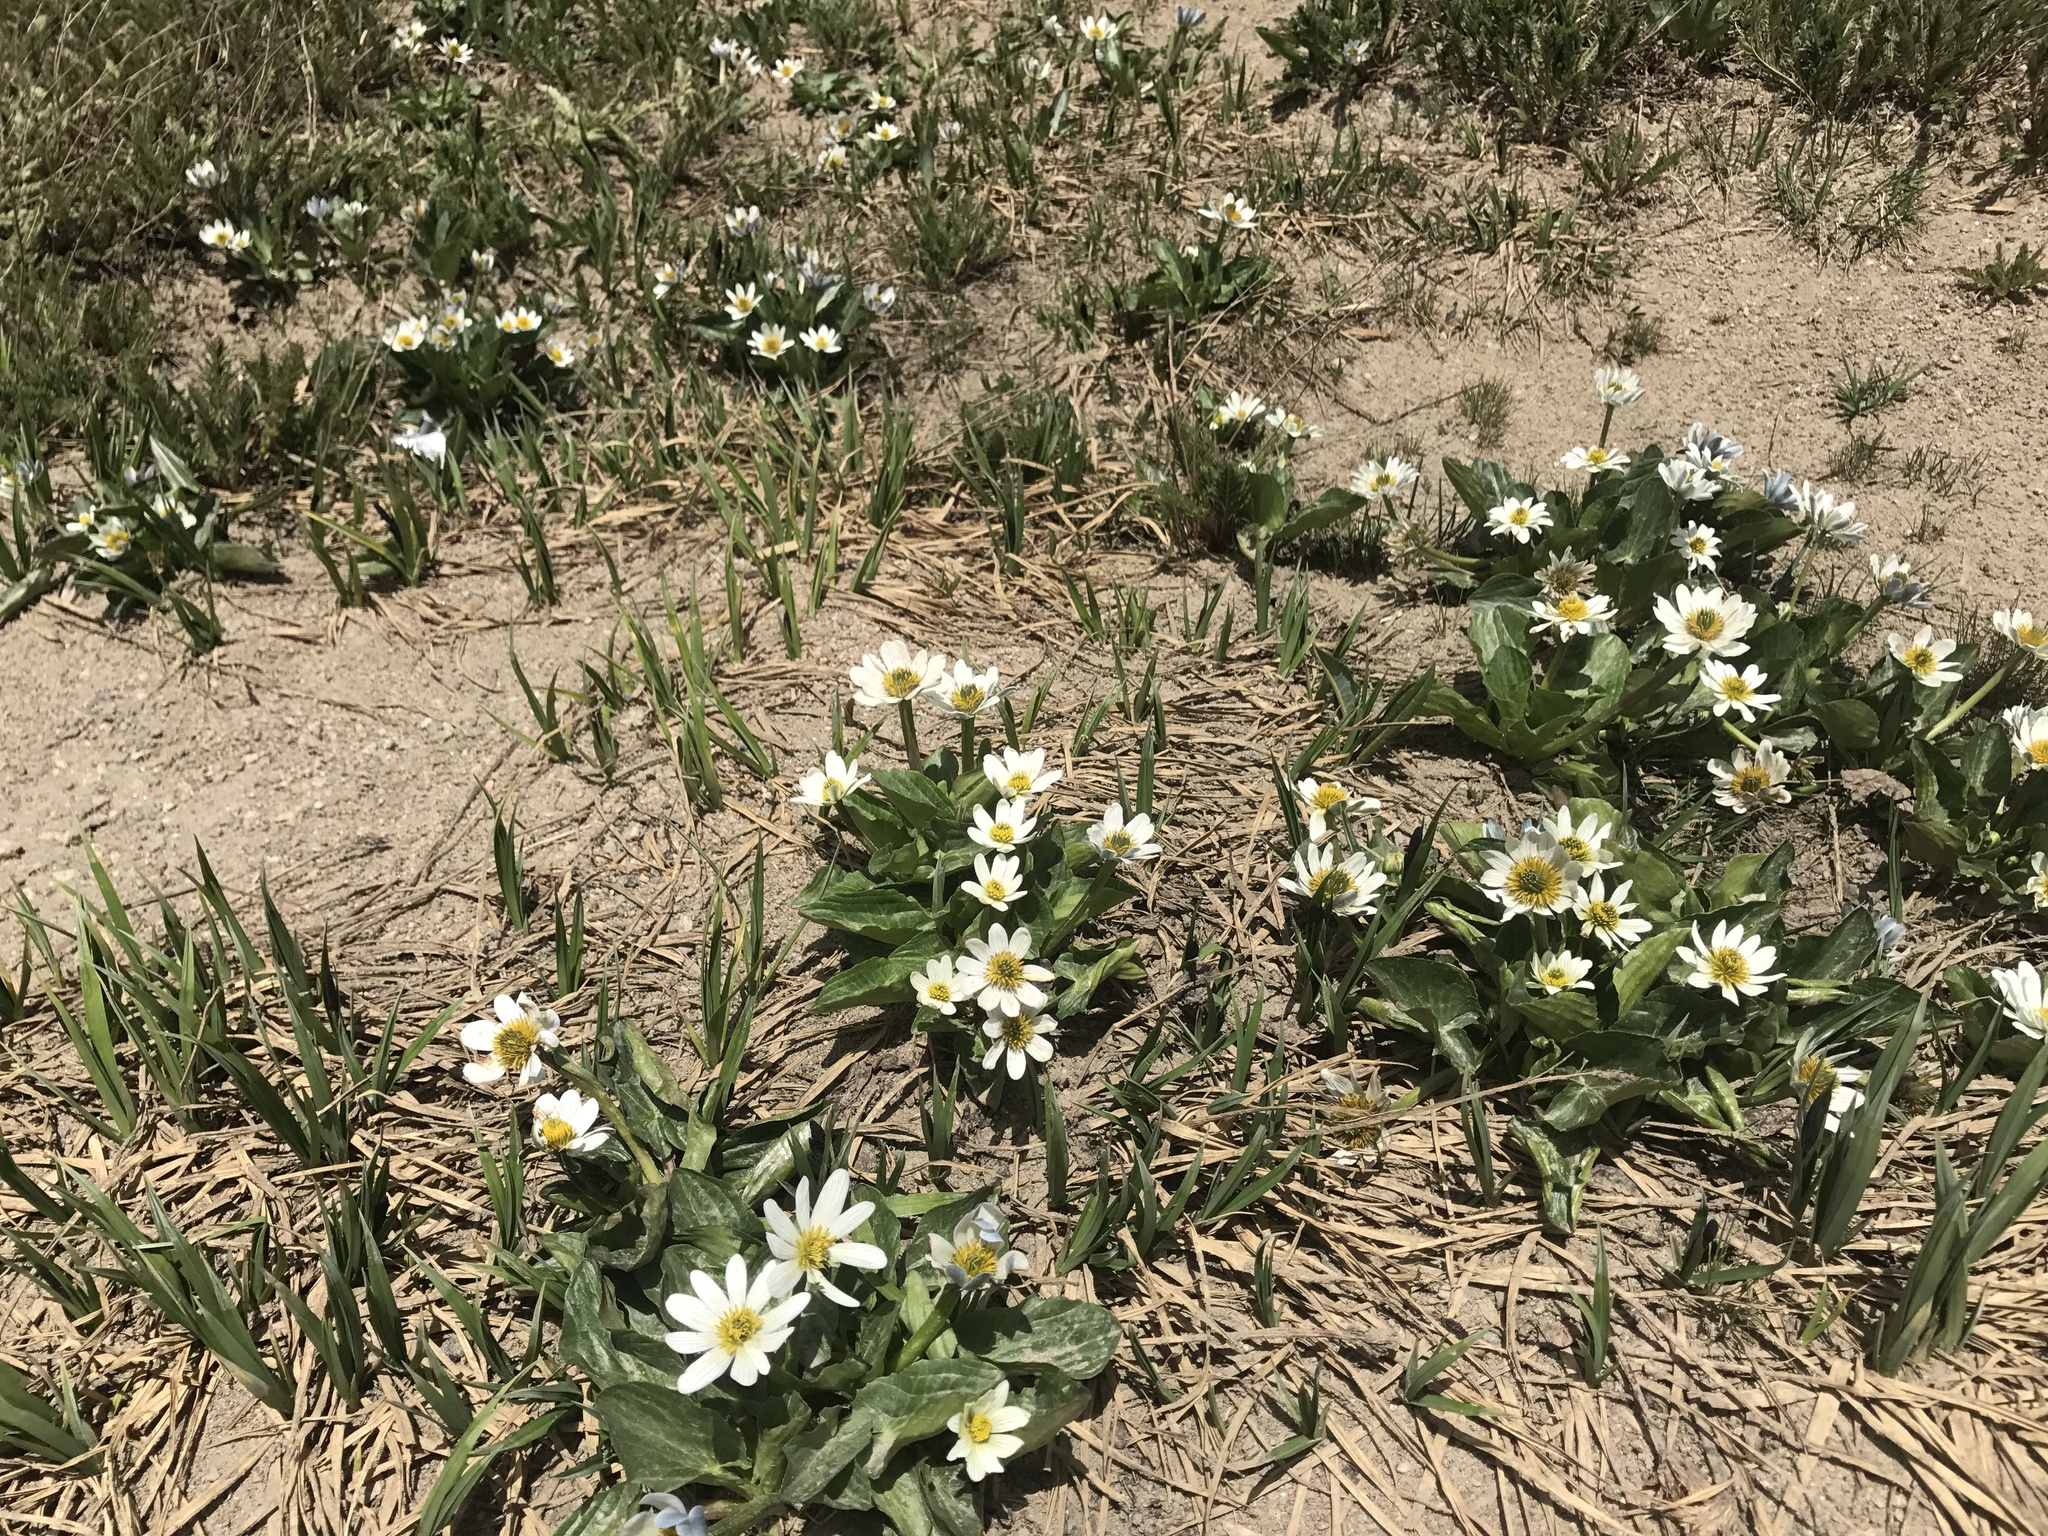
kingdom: Plantae
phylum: Tracheophyta
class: Magnoliopsida
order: Ranunculales
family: Ranunculaceae
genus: Caltha
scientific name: Caltha leptosepala
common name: Elkslip
